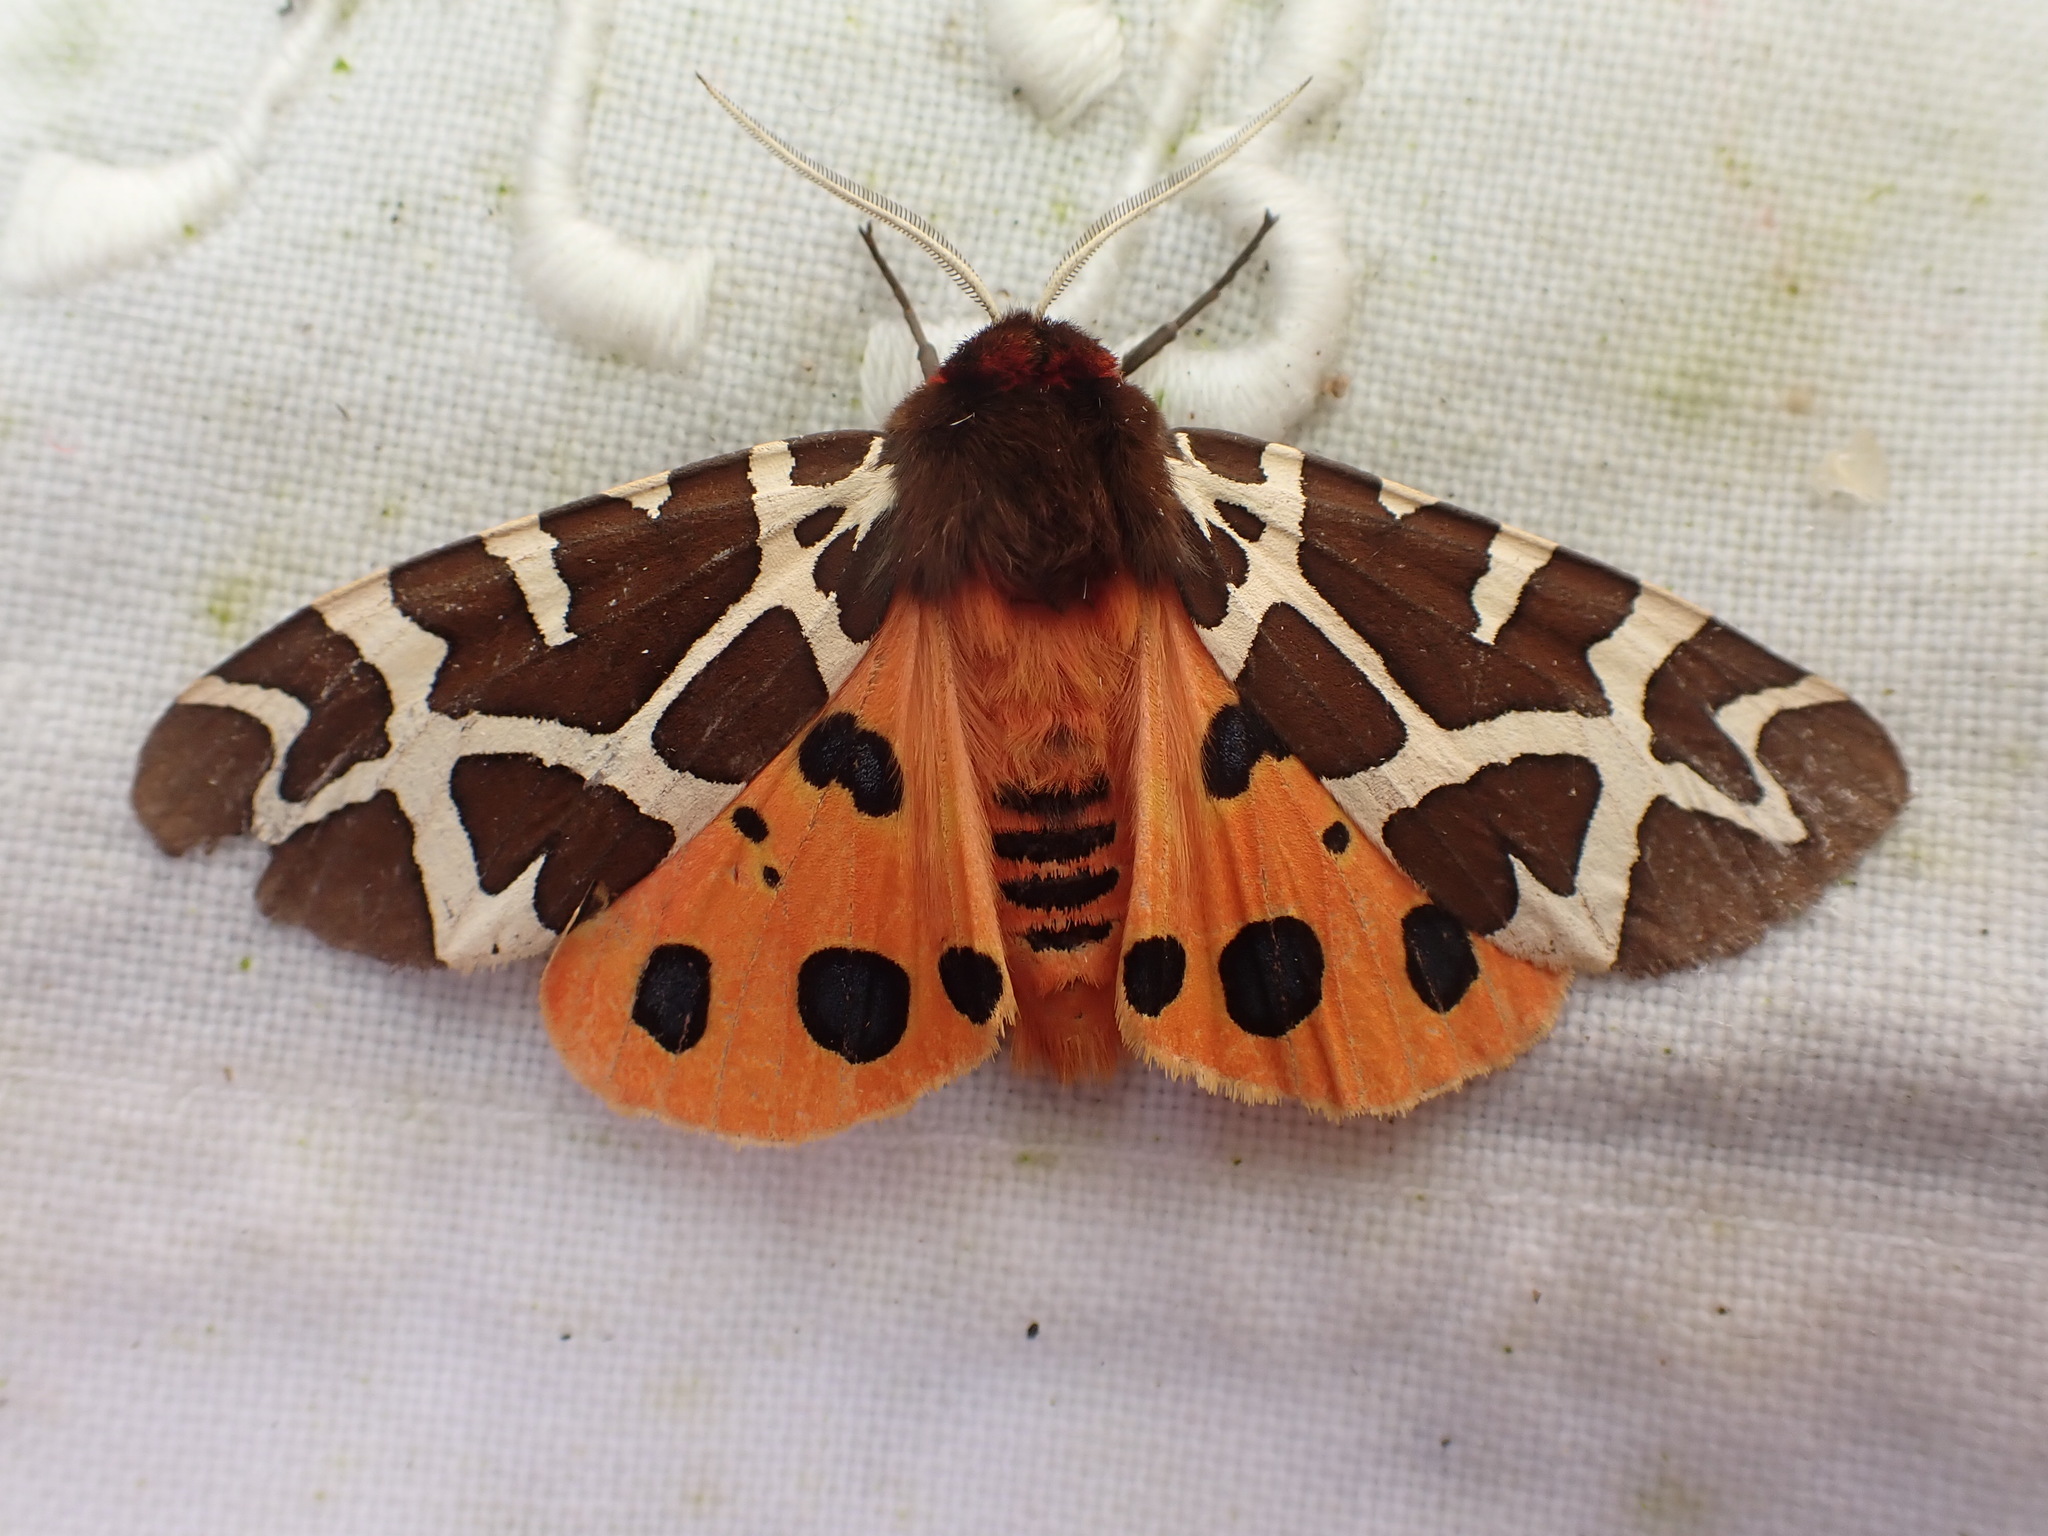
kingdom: Animalia
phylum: Arthropoda
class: Insecta
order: Lepidoptera
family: Erebidae
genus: Arctia
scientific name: Arctia caja
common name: Garden tiger
